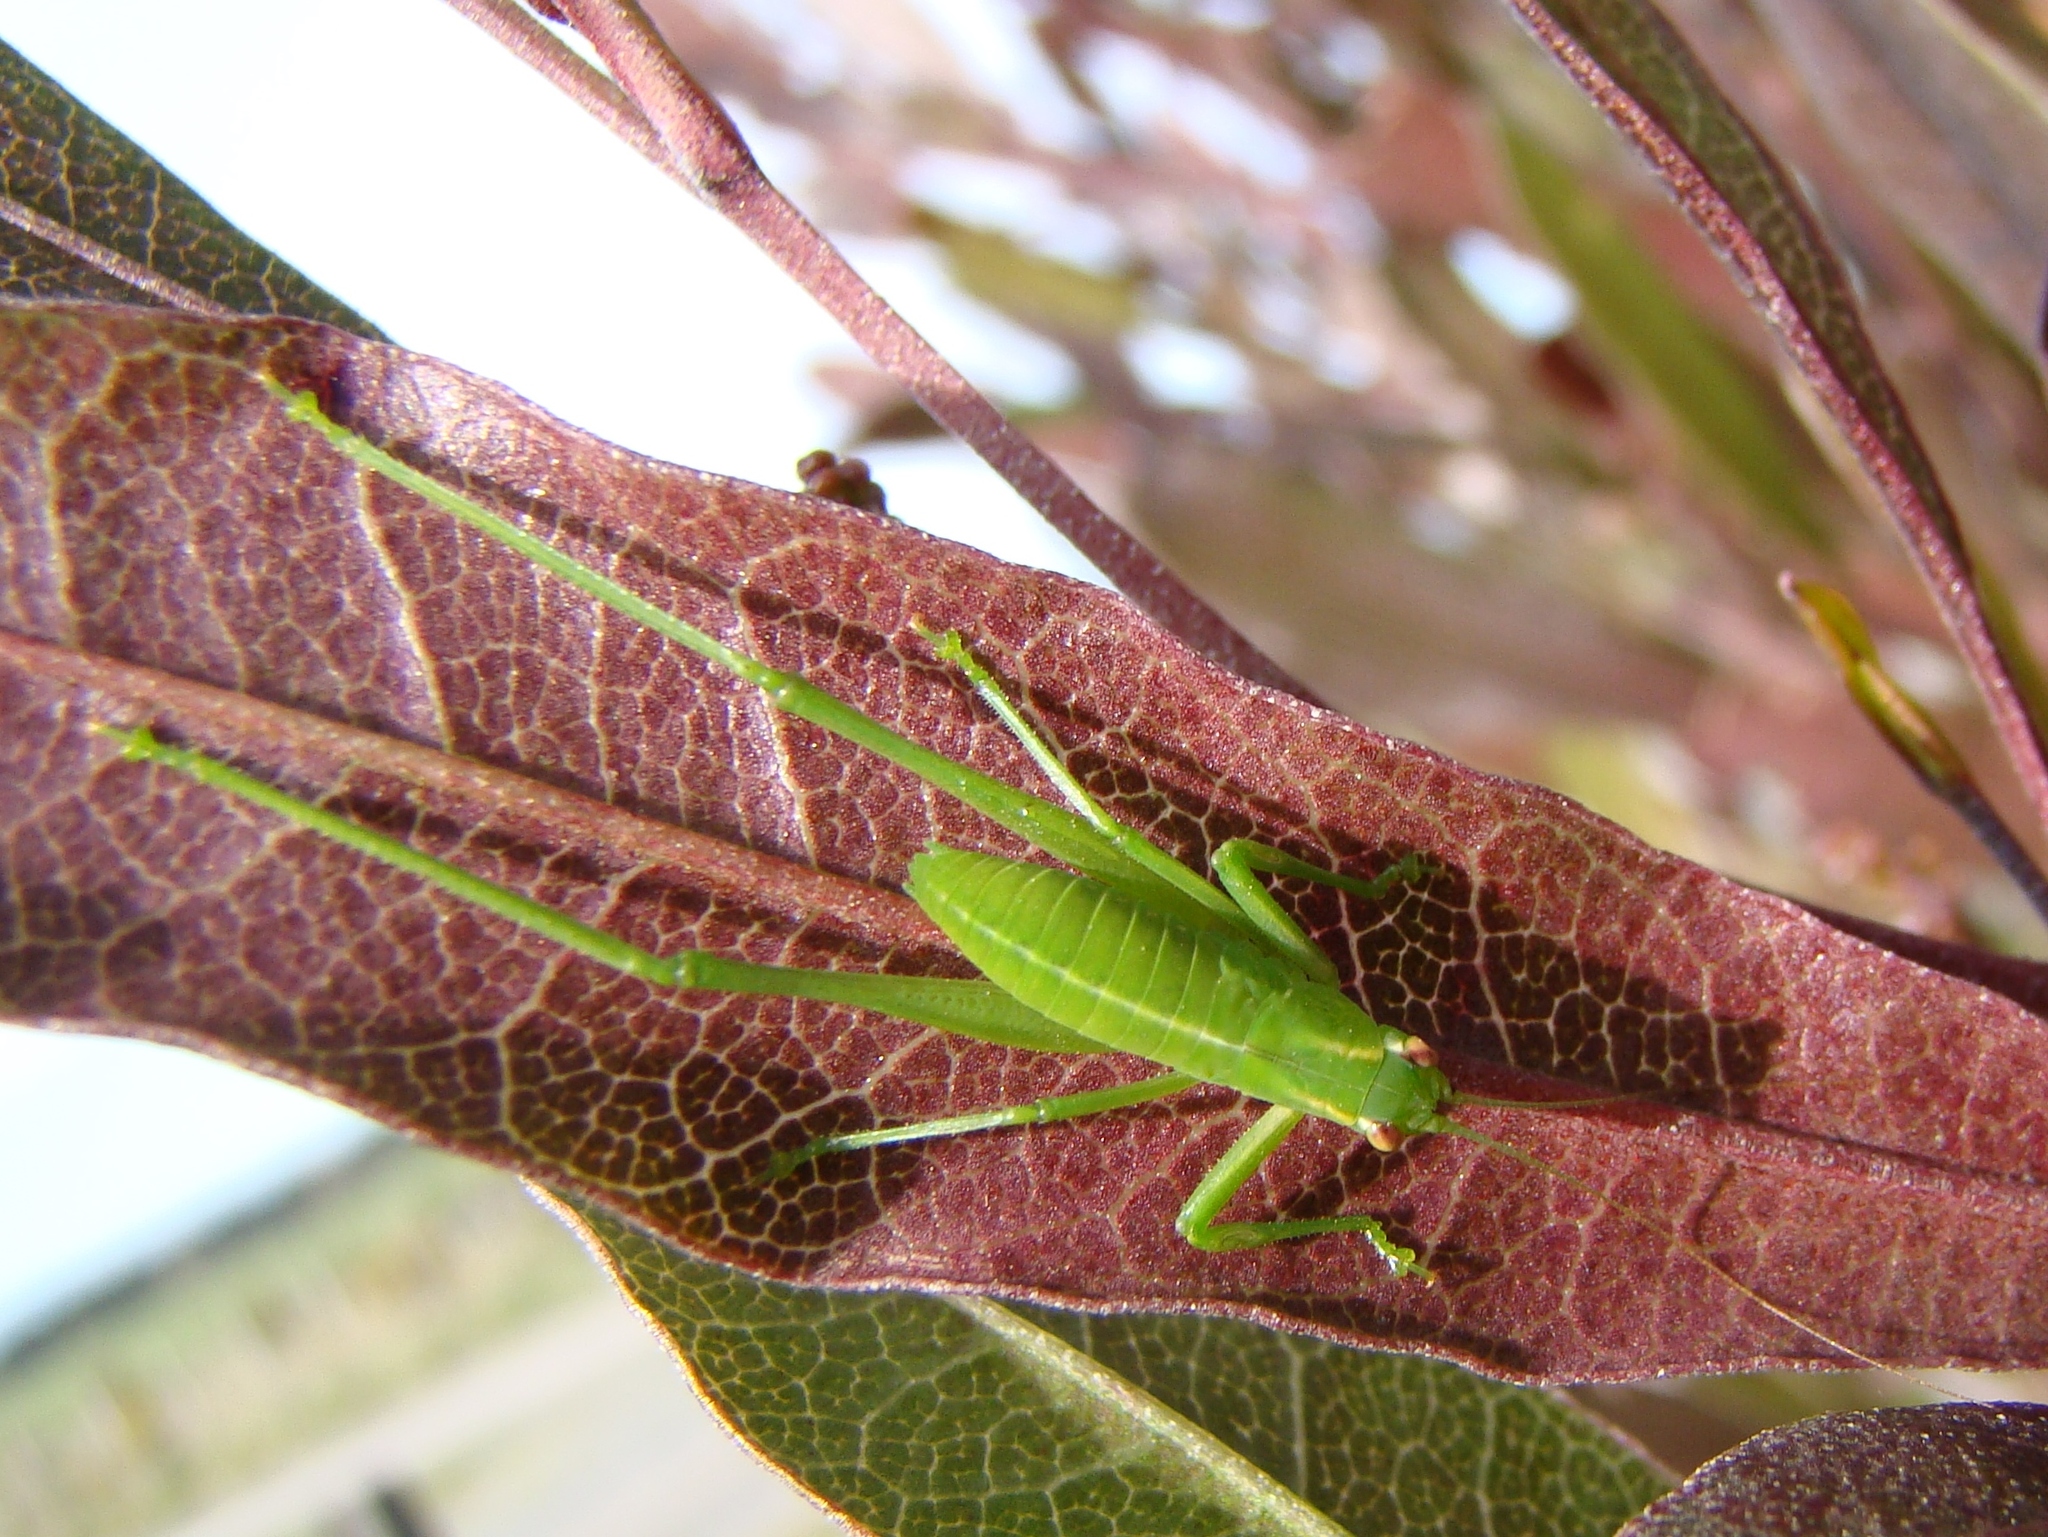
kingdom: Animalia
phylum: Arthropoda
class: Insecta
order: Orthoptera
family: Tettigoniidae
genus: Caedicia
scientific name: Caedicia simplex
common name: Common garden katydid
